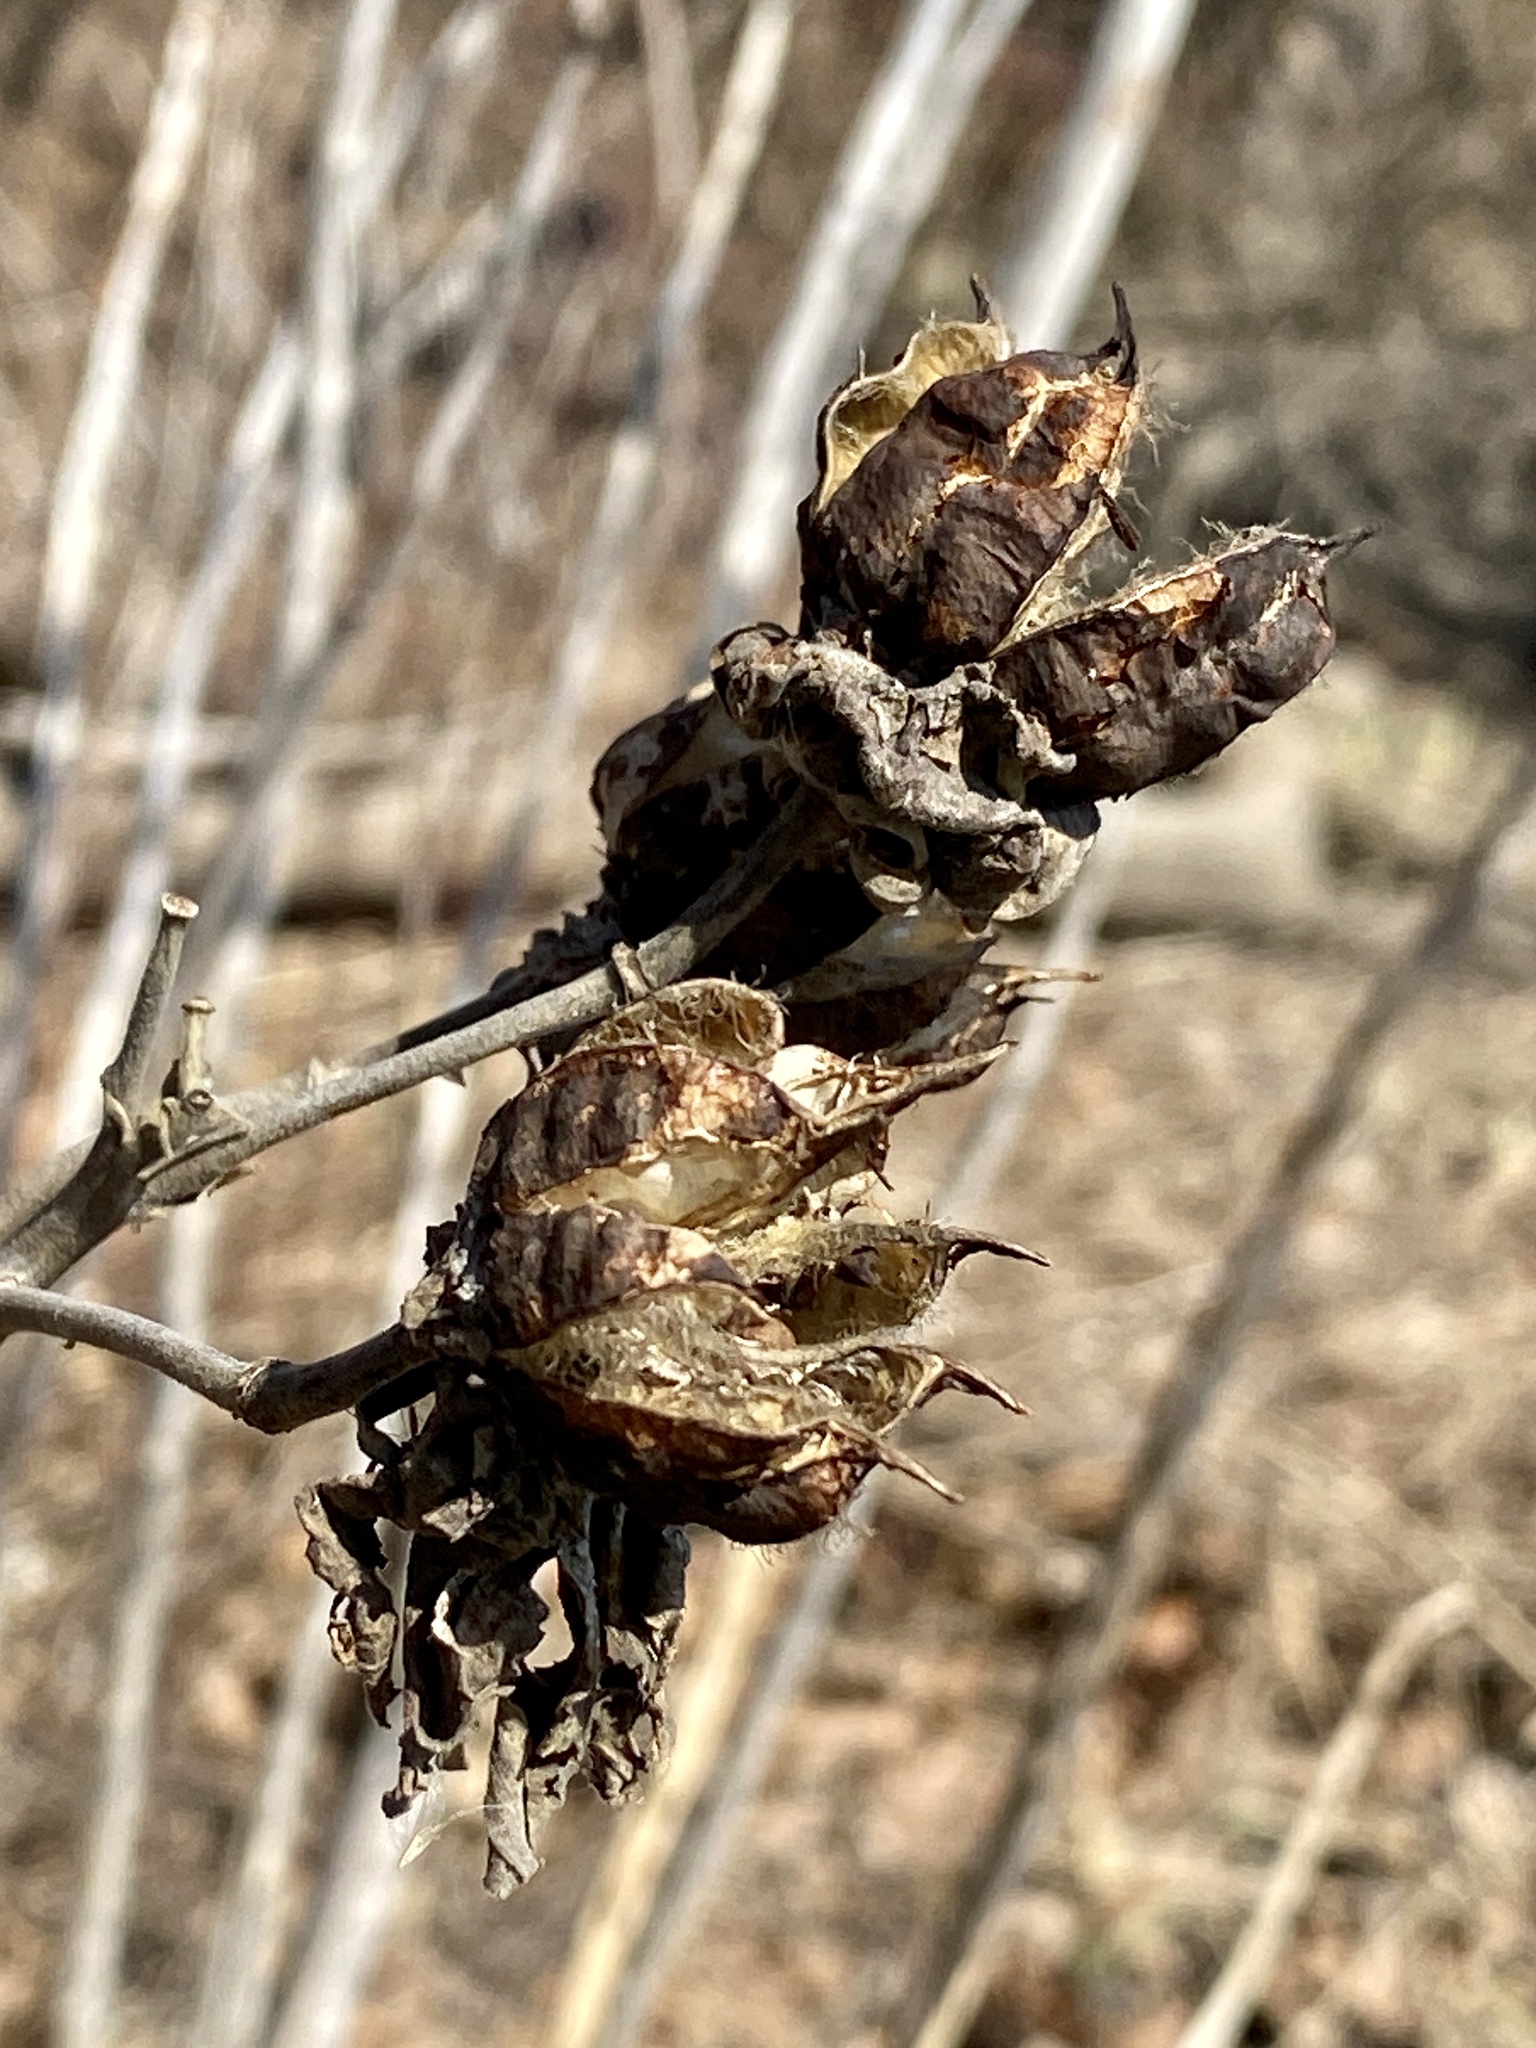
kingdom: Plantae
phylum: Tracheophyta
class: Magnoliopsida
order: Malvales
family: Malvaceae
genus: Hibiscus
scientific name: Hibiscus moscheutos
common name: Common rose-mallow
